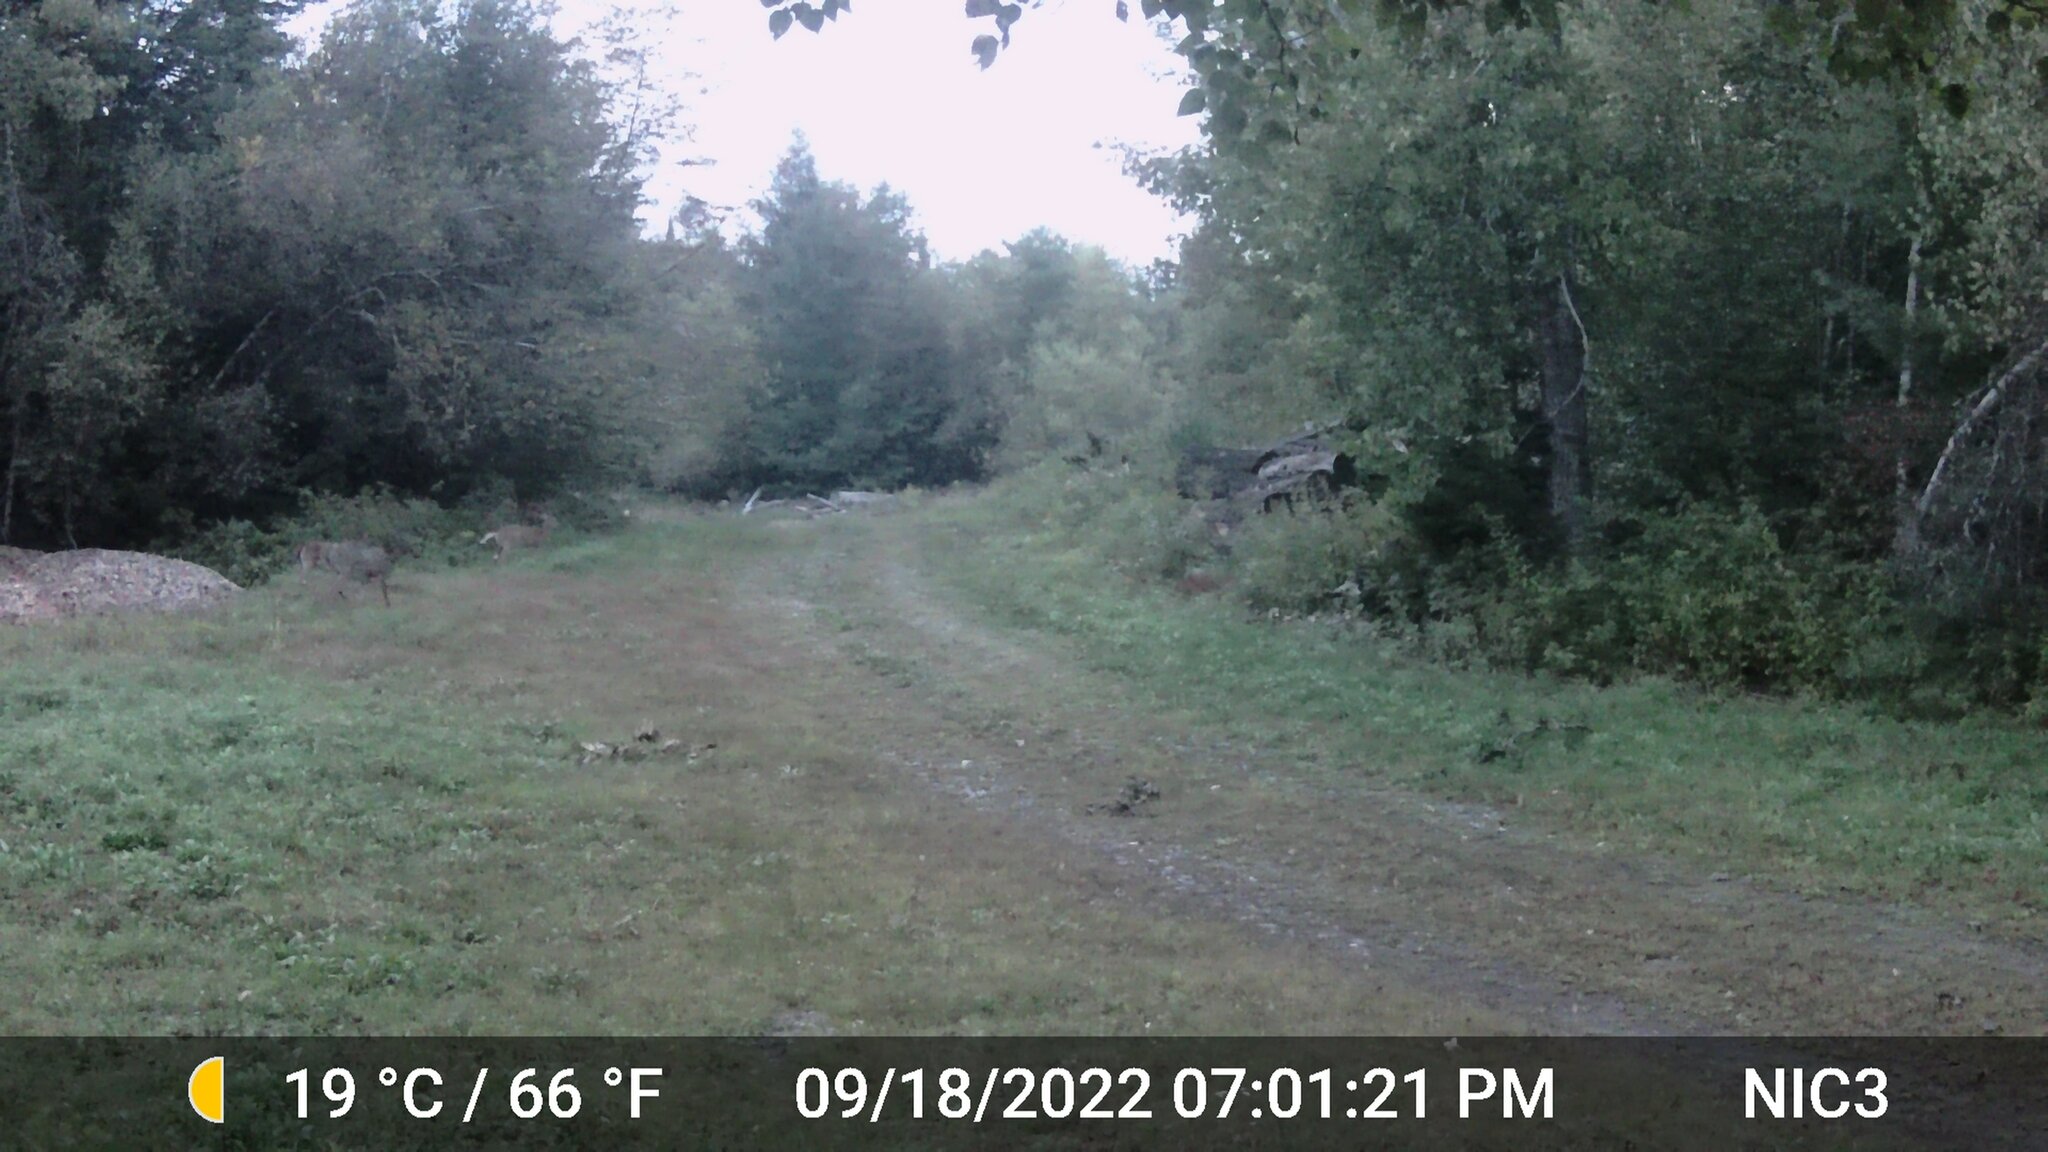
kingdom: Animalia
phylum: Chordata
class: Mammalia
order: Artiodactyla
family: Cervidae
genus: Odocoileus
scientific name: Odocoileus virginianus
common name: White-tailed deer
